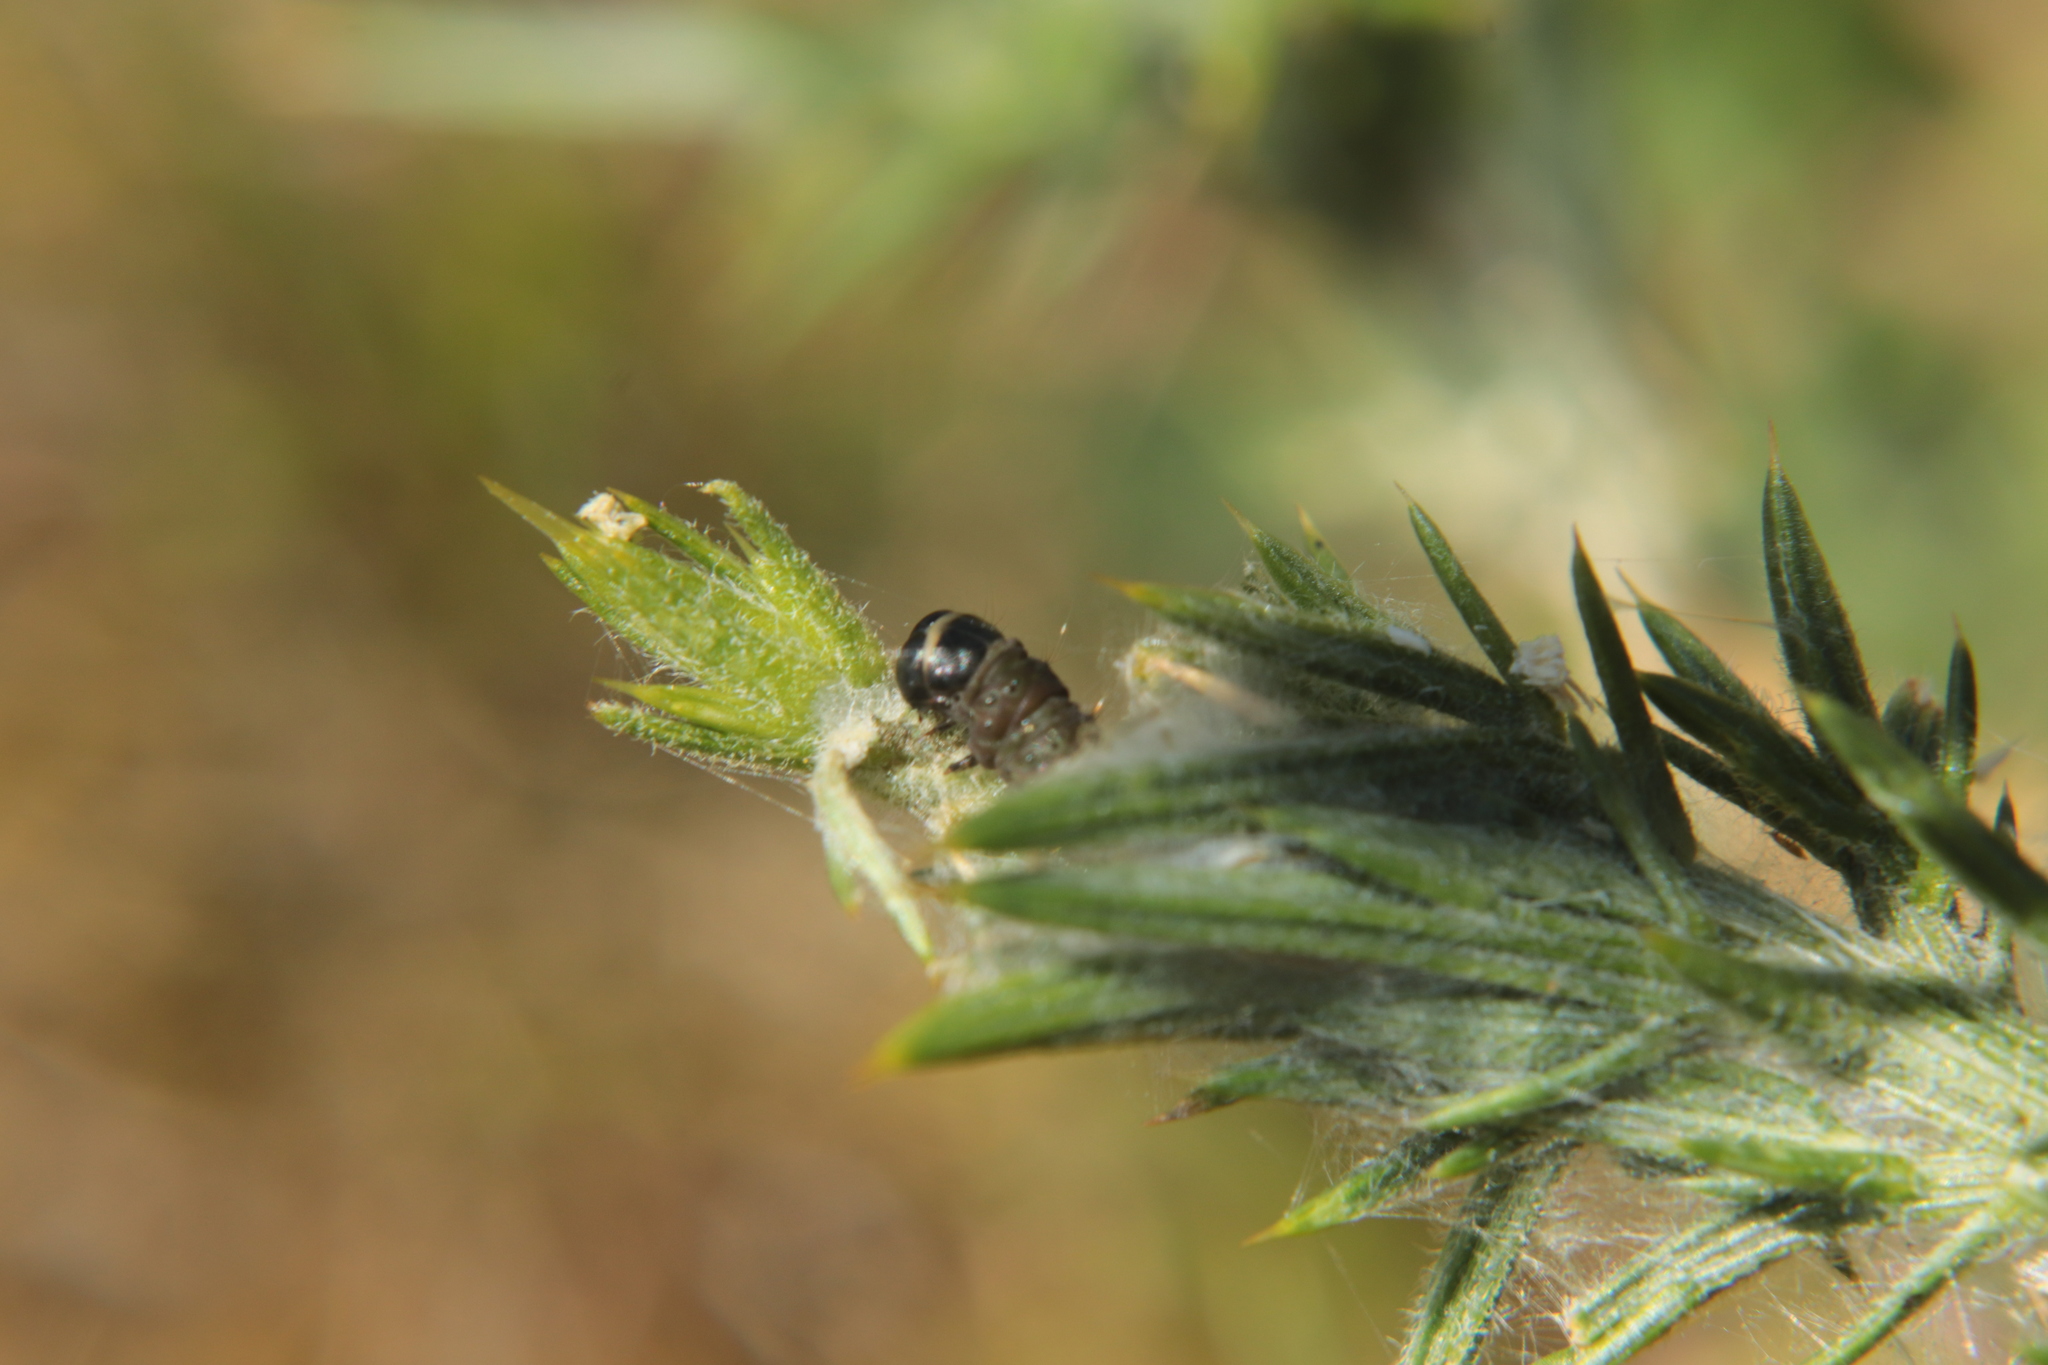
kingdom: Animalia
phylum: Arthropoda
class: Insecta
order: Lepidoptera
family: Depressariidae
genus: Agonopterix
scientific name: Agonopterix
